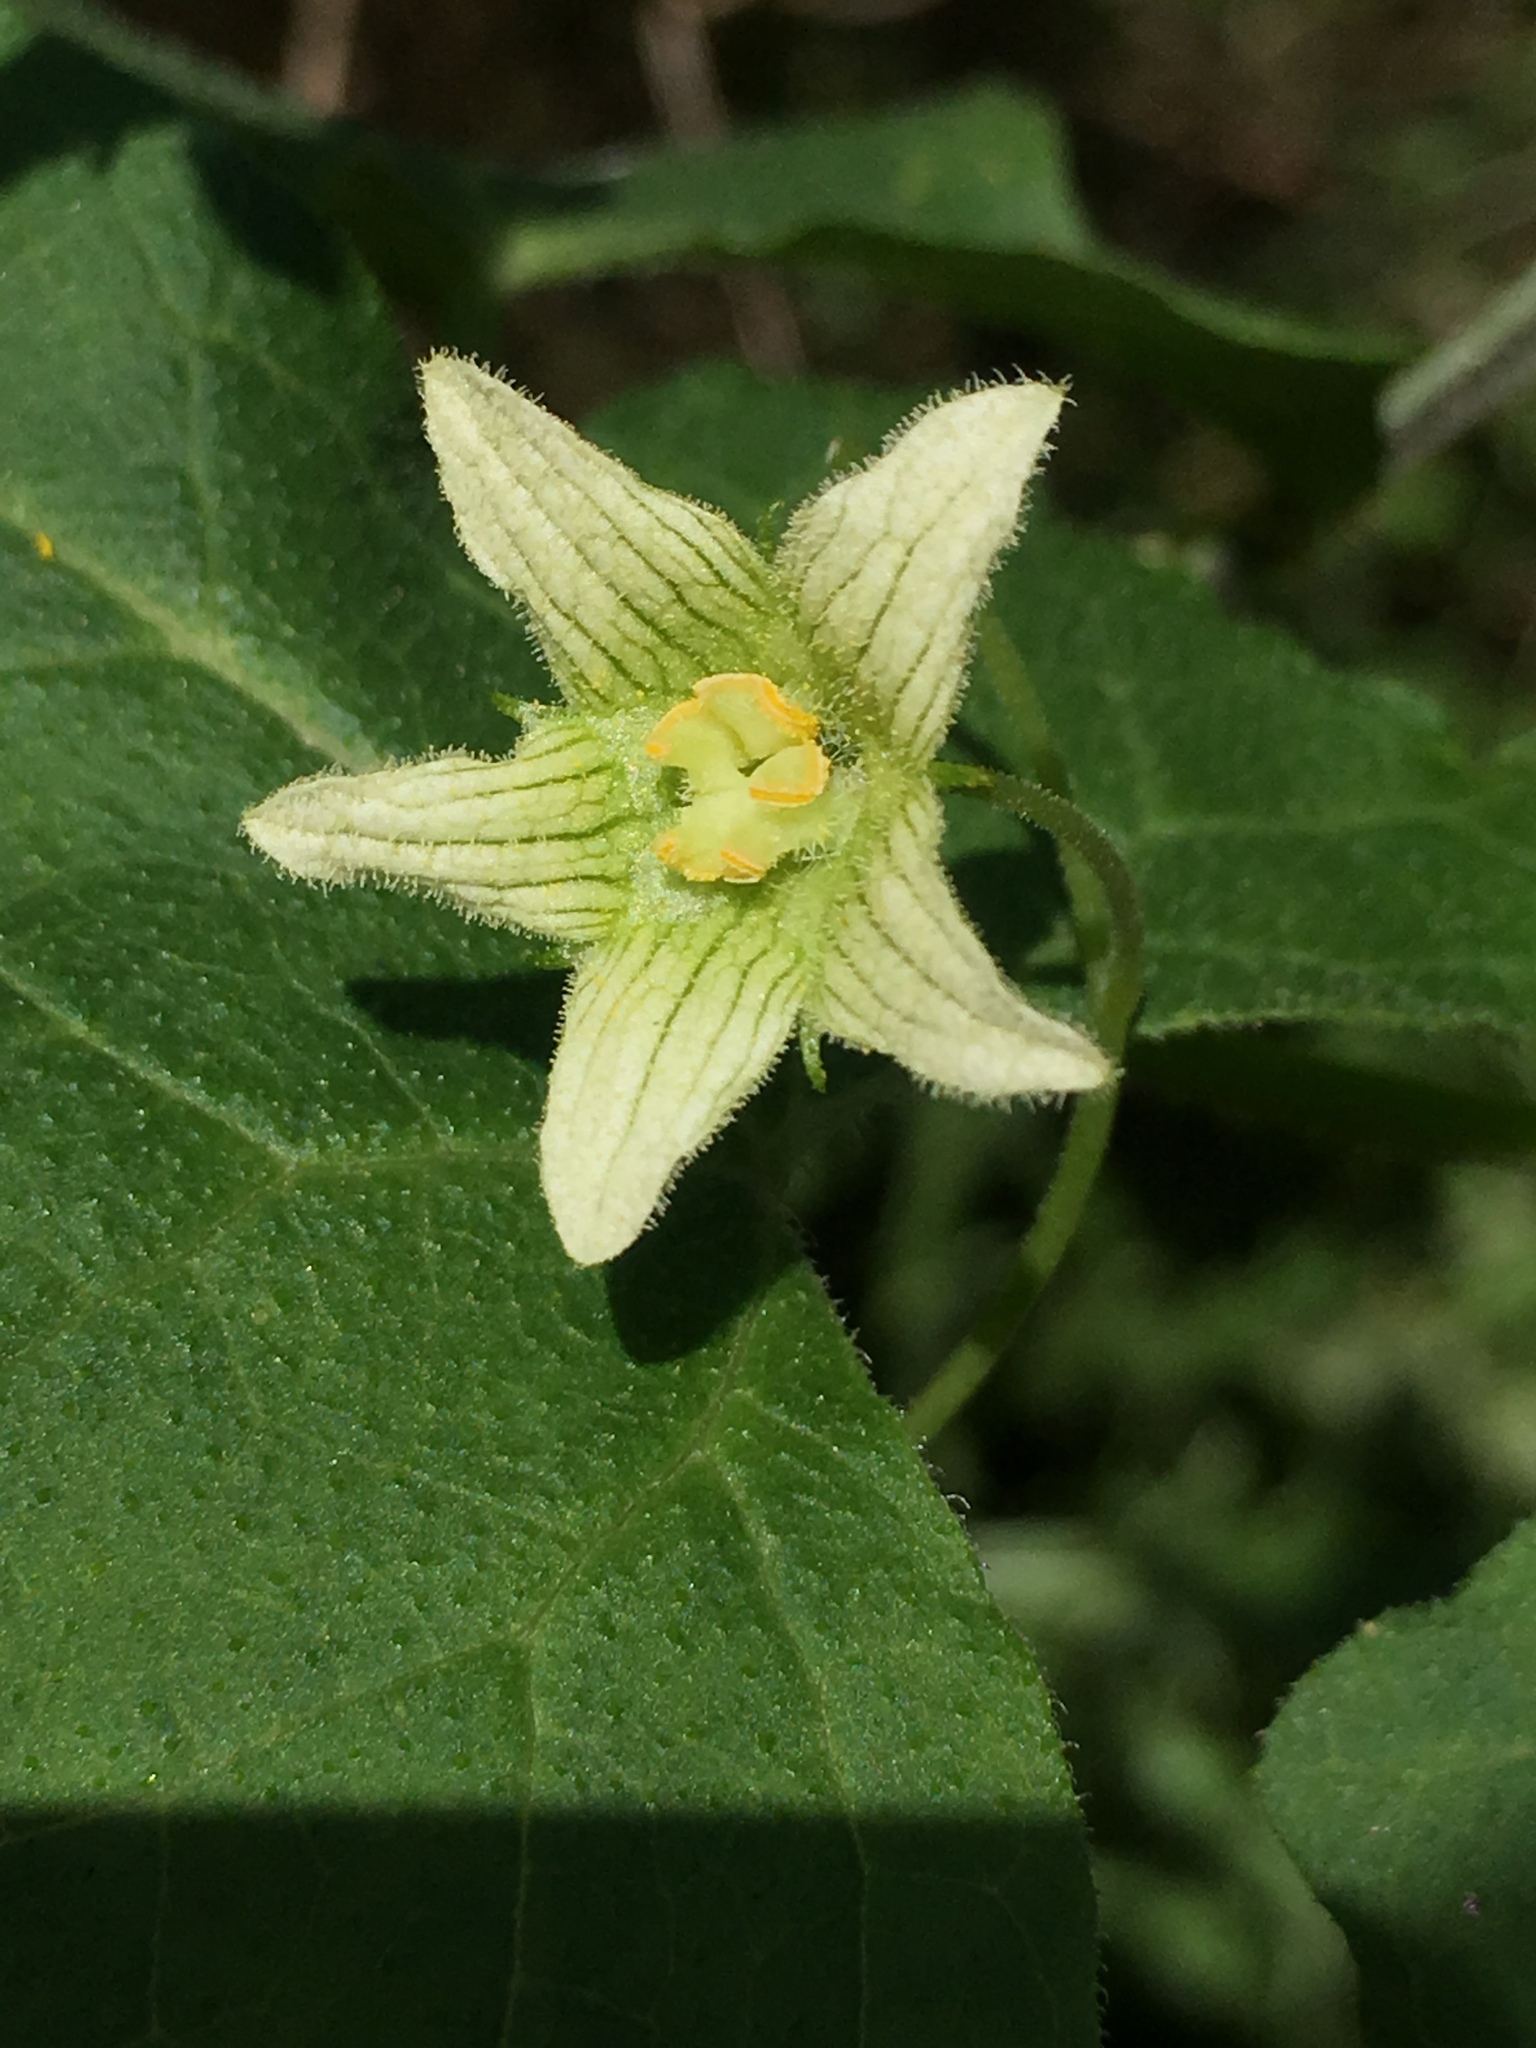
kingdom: Plantae
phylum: Tracheophyta
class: Magnoliopsida
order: Cucurbitales
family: Cucurbitaceae
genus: Bryonia
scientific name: Bryonia cretica
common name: Cretan bryony
